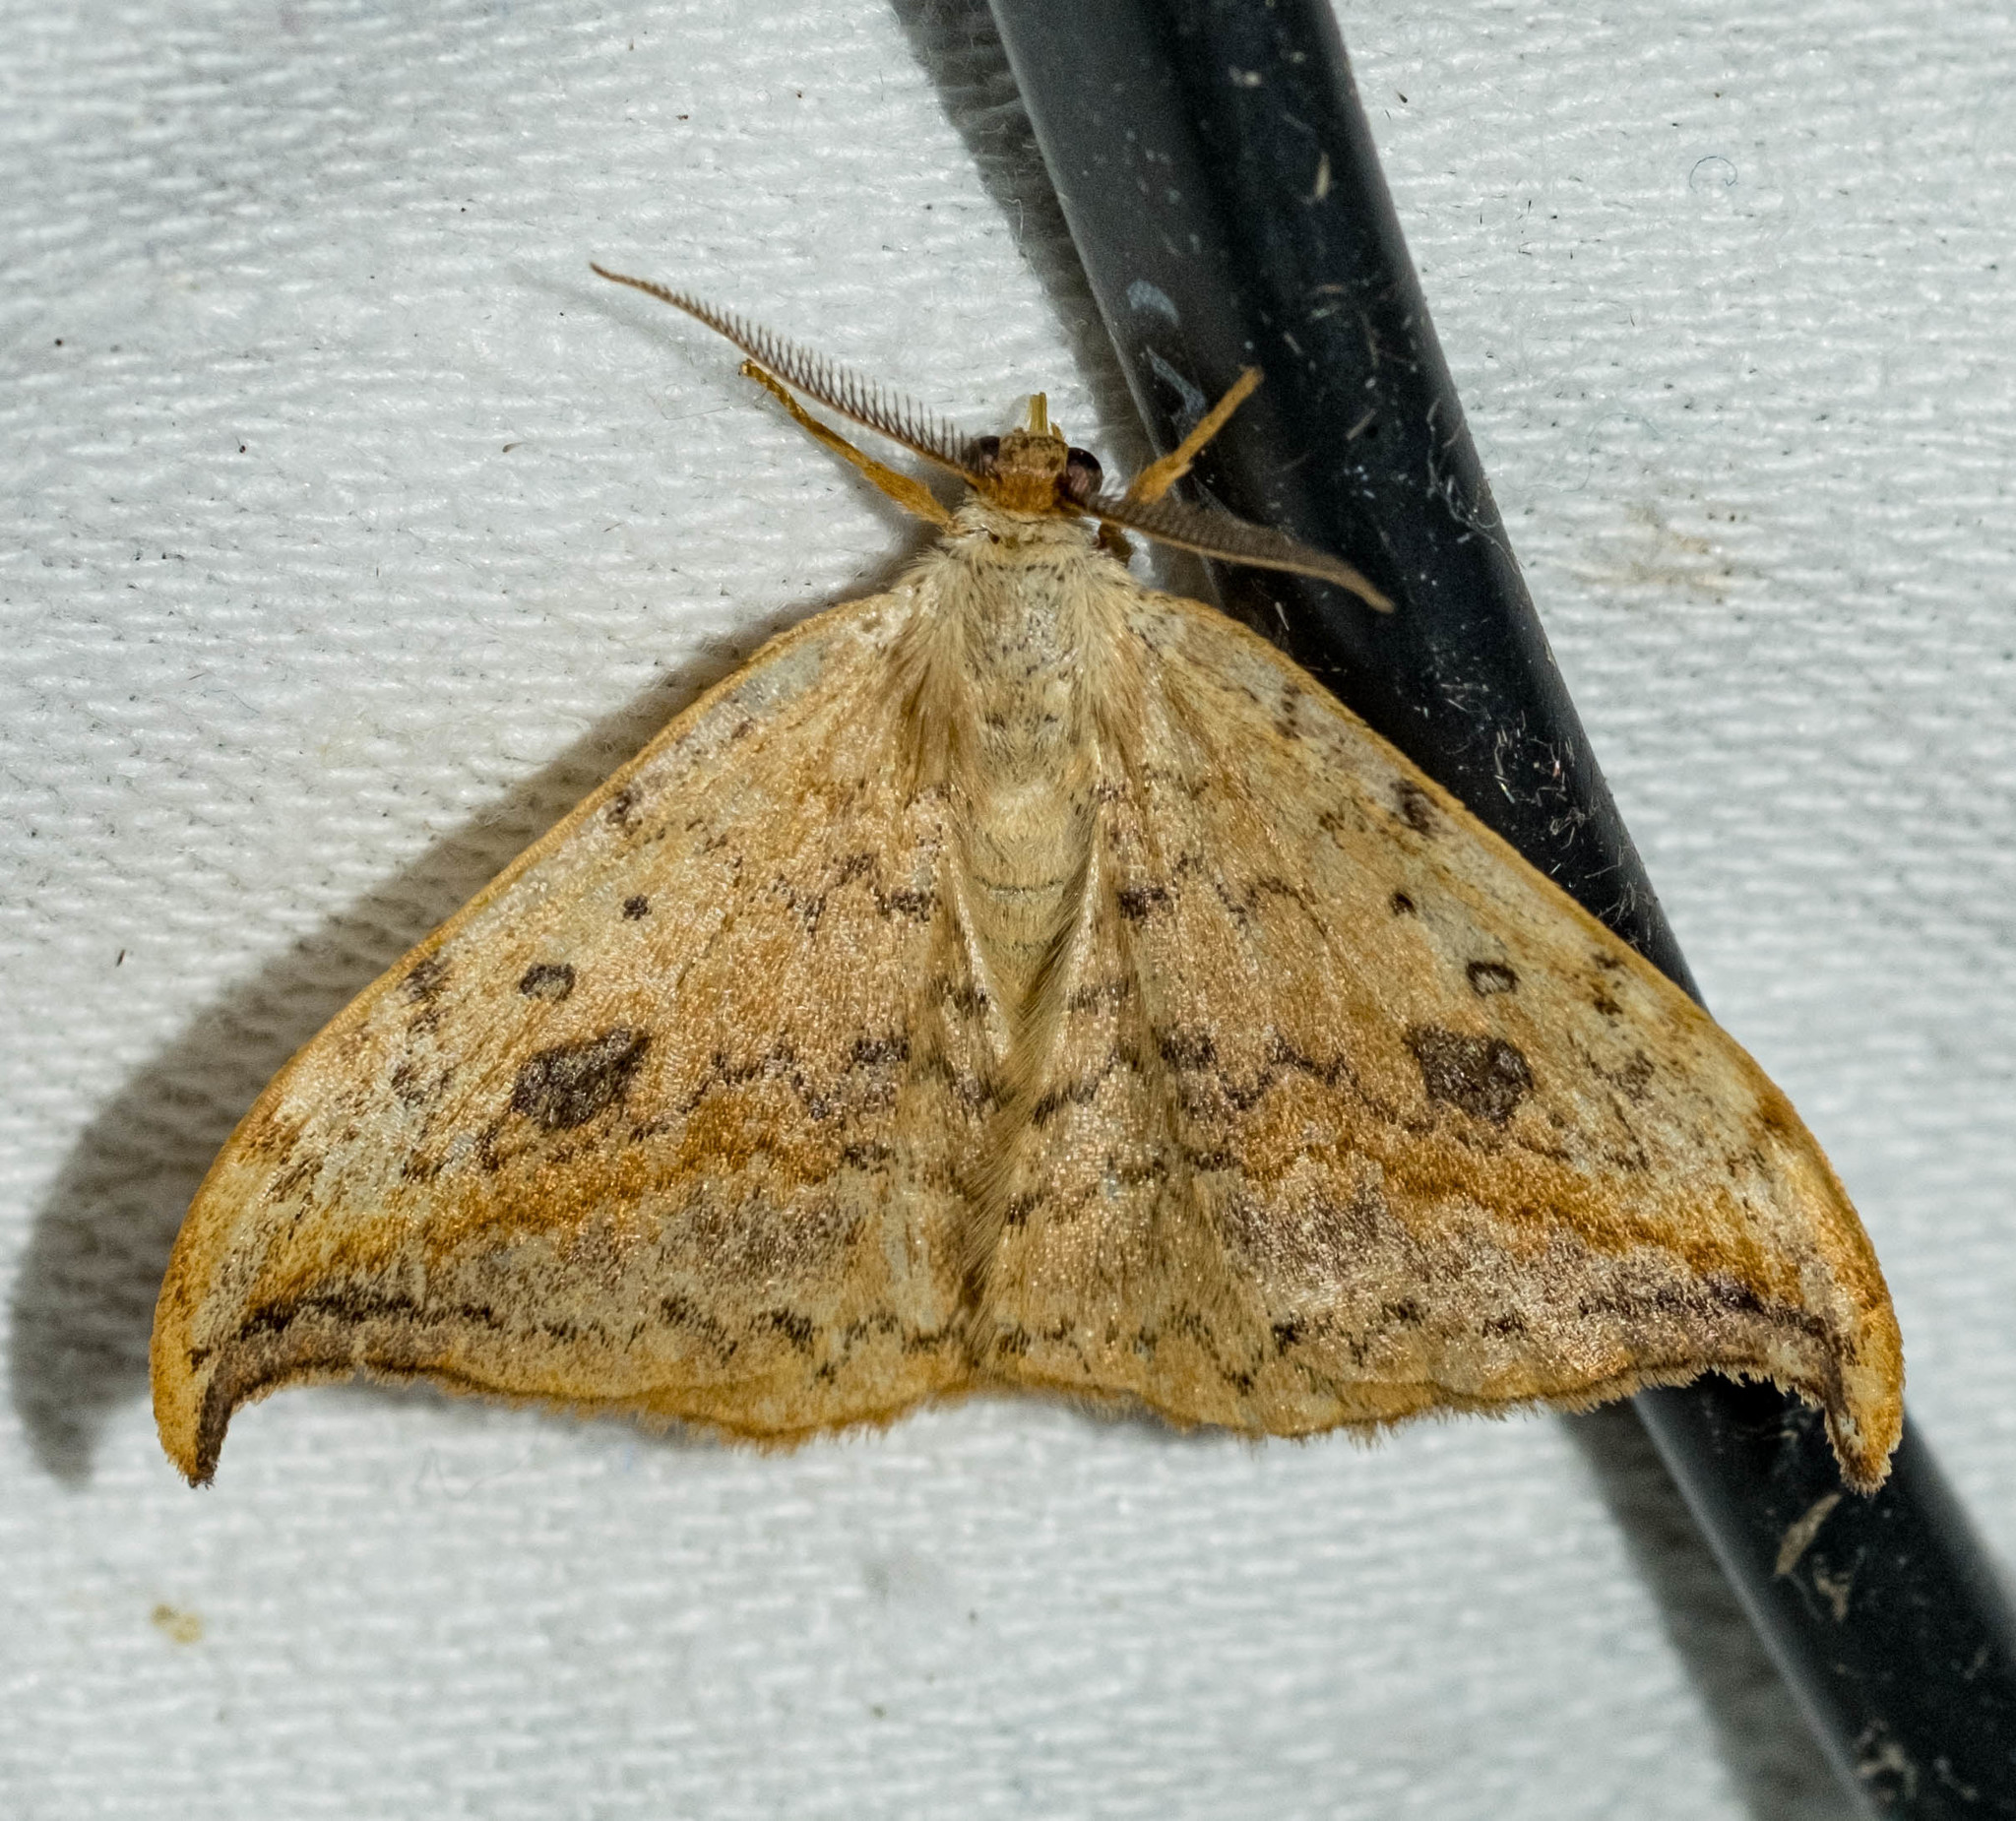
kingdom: Animalia
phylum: Arthropoda
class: Insecta
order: Lepidoptera
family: Drepanidae
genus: Drepana
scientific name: Drepana falcataria
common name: Pebble hook-tip
